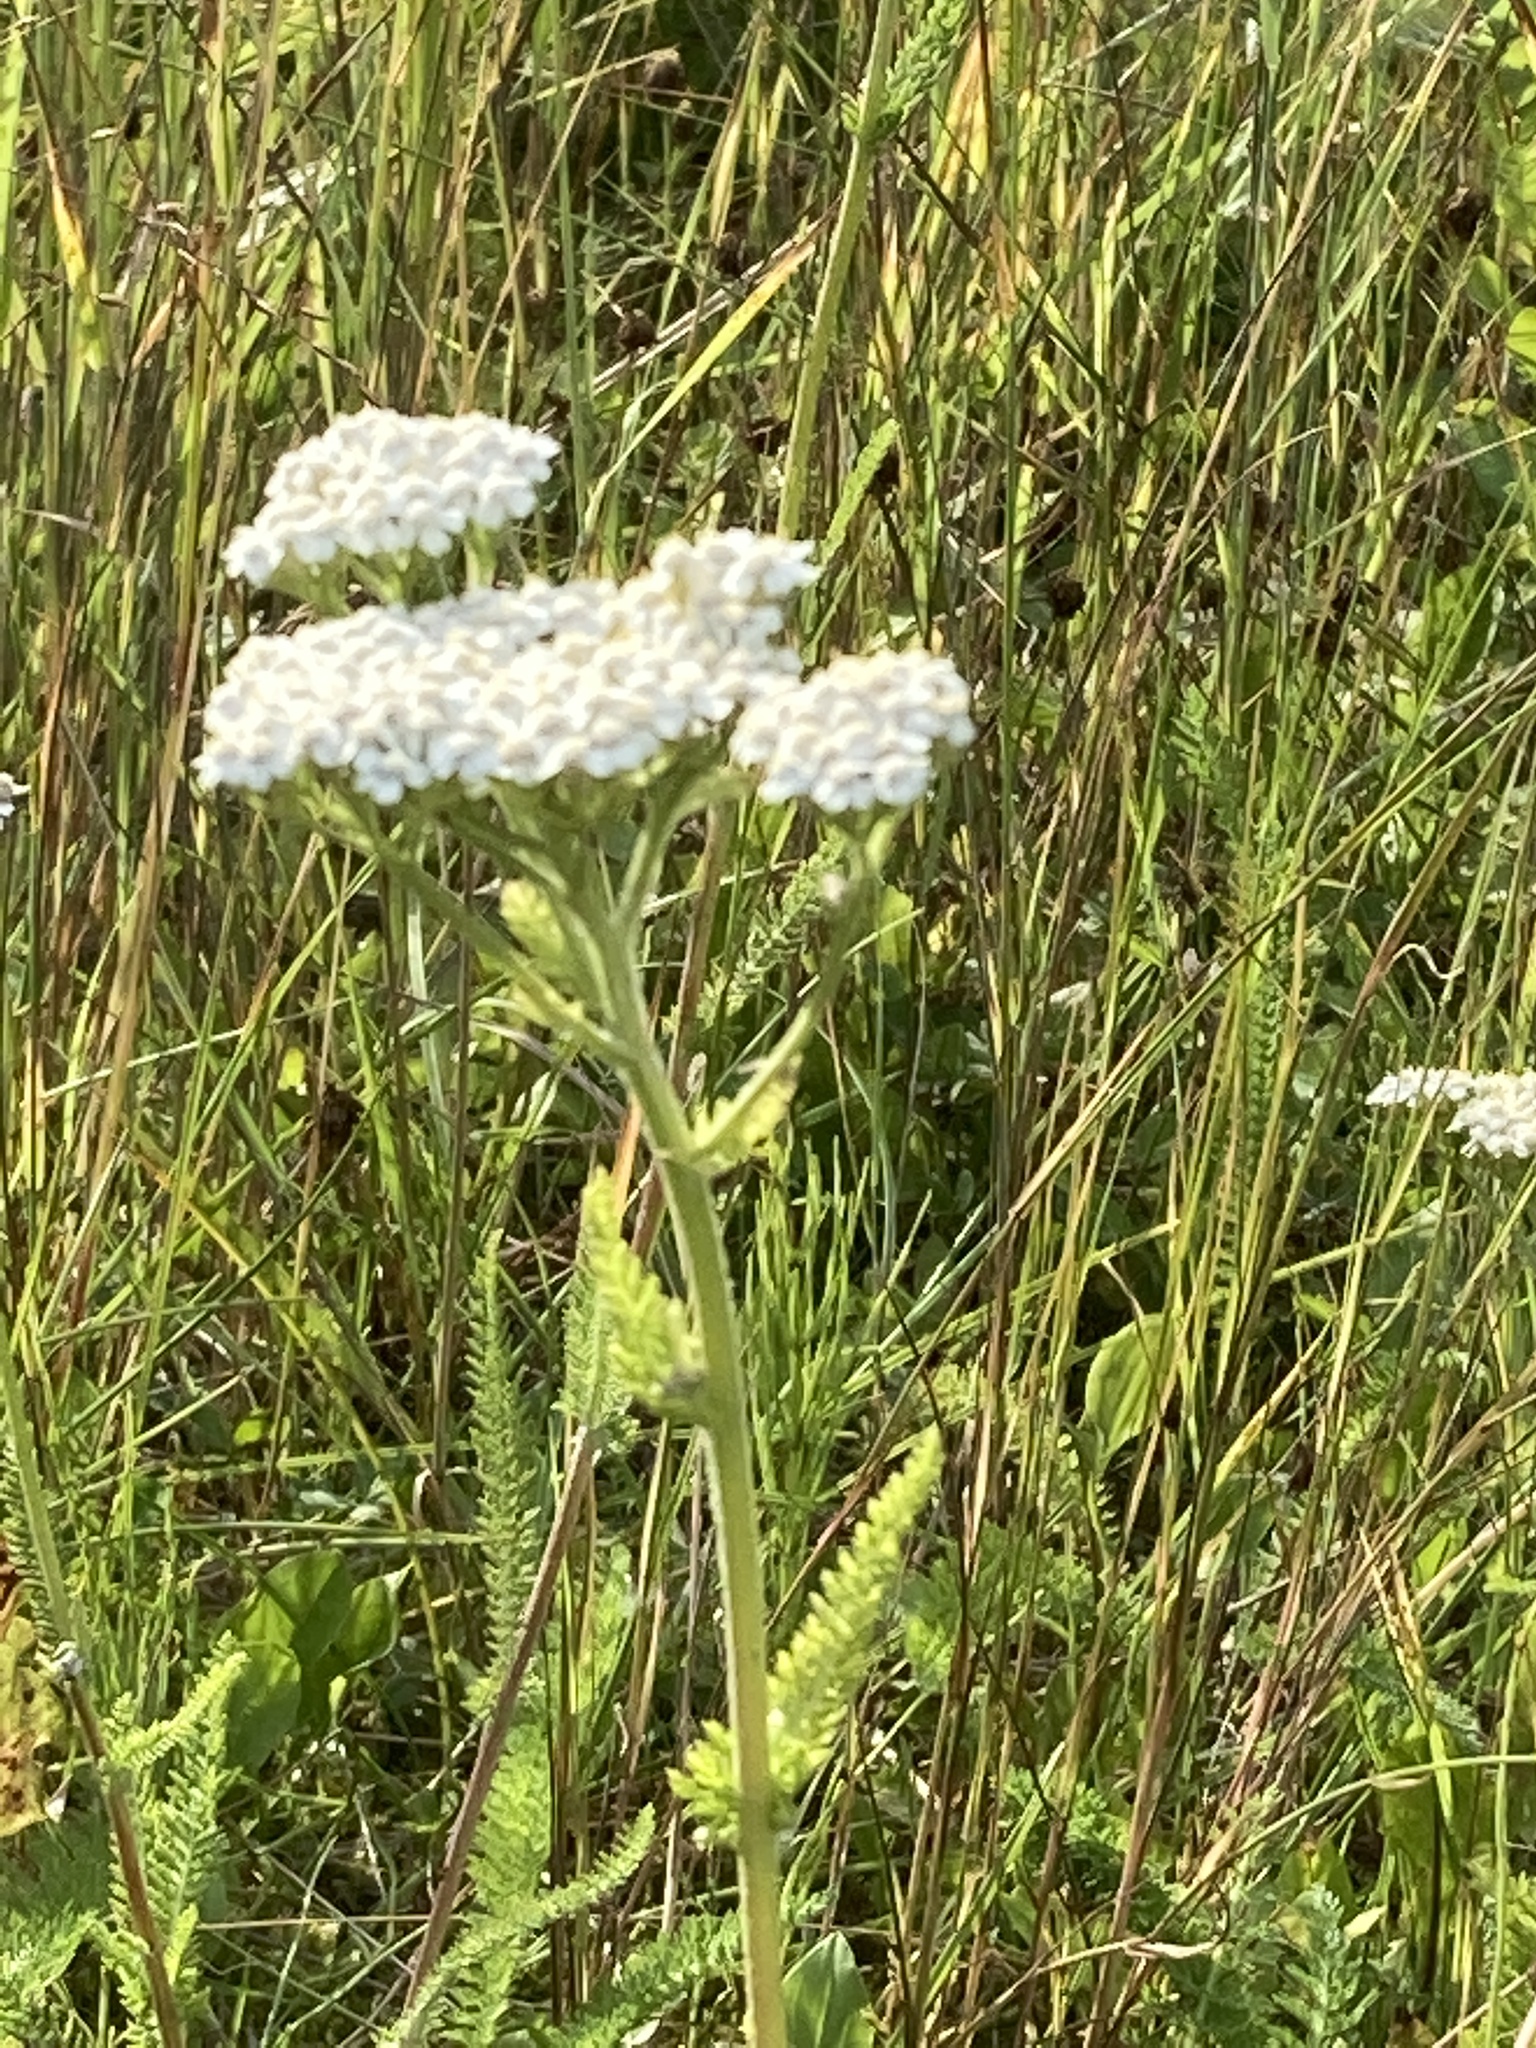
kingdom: Plantae
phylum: Tracheophyta
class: Magnoliopsida
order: Asterales
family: Asteraceae
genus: Achillea
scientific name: Achillea millefolium
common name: Yarrow
